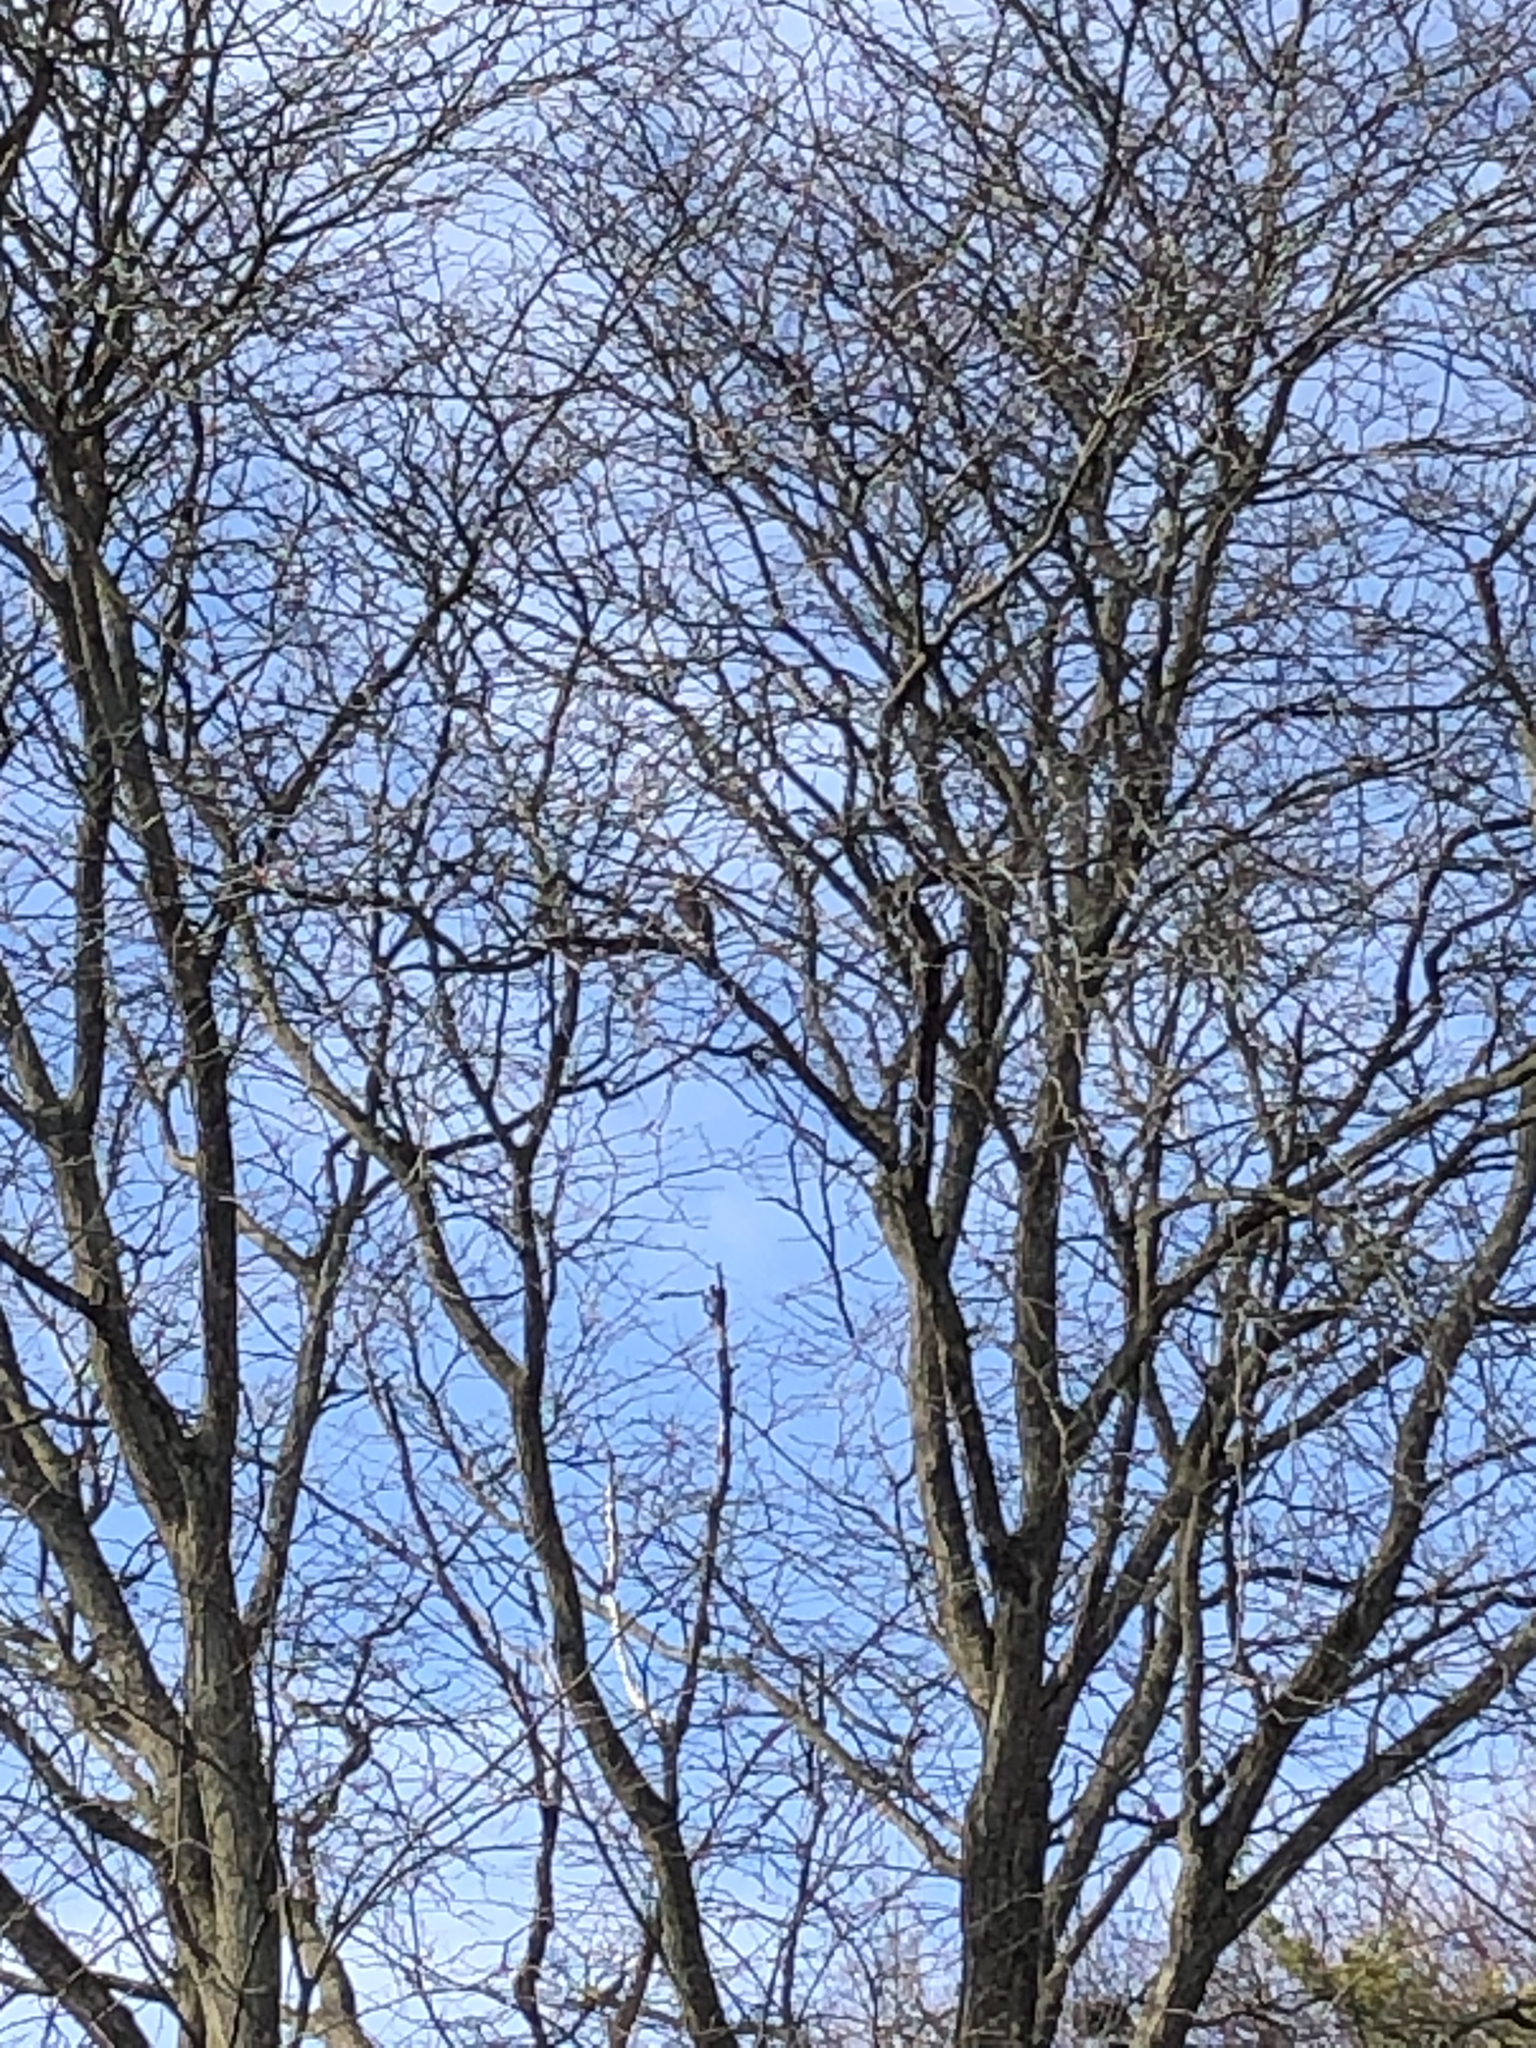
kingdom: Animalia
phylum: Chordata
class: Aves
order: Accipitriformes
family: Accipitridae
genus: Accipiter
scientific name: Accipiter cooperii
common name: Cooper's hawk
